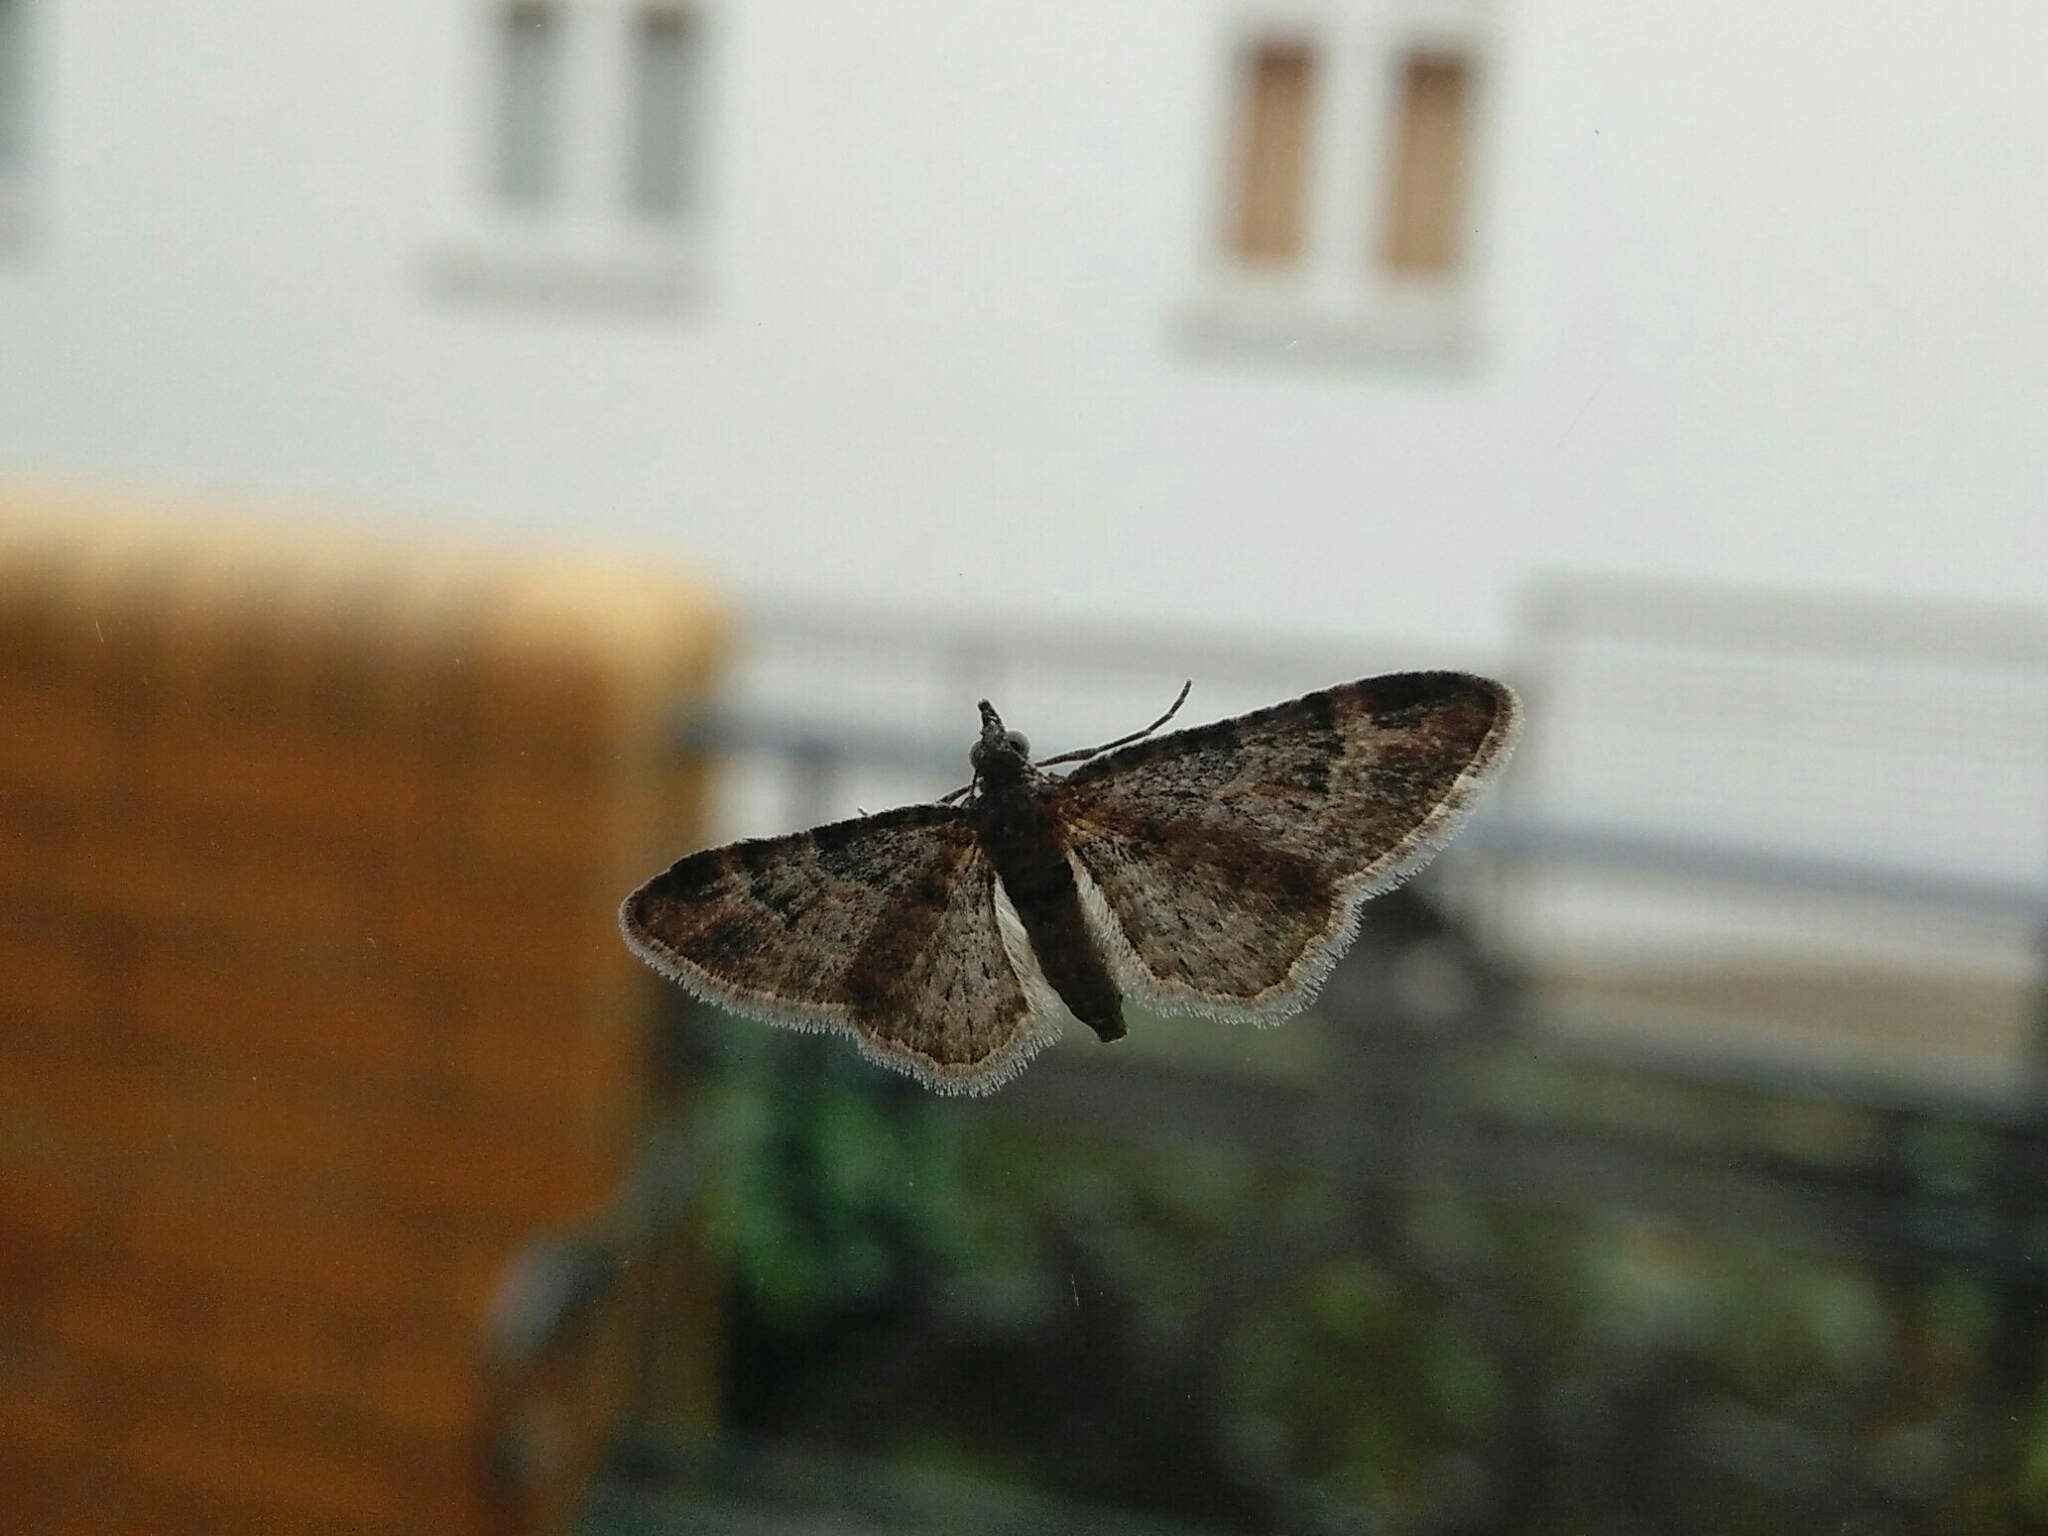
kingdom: Animalia
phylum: Arthropoda
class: Insecta
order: Lepidoptera
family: Geometridae
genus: Gymnoscelis
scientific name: Gymnoscelis rufifasciata
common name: Double-striped pug
